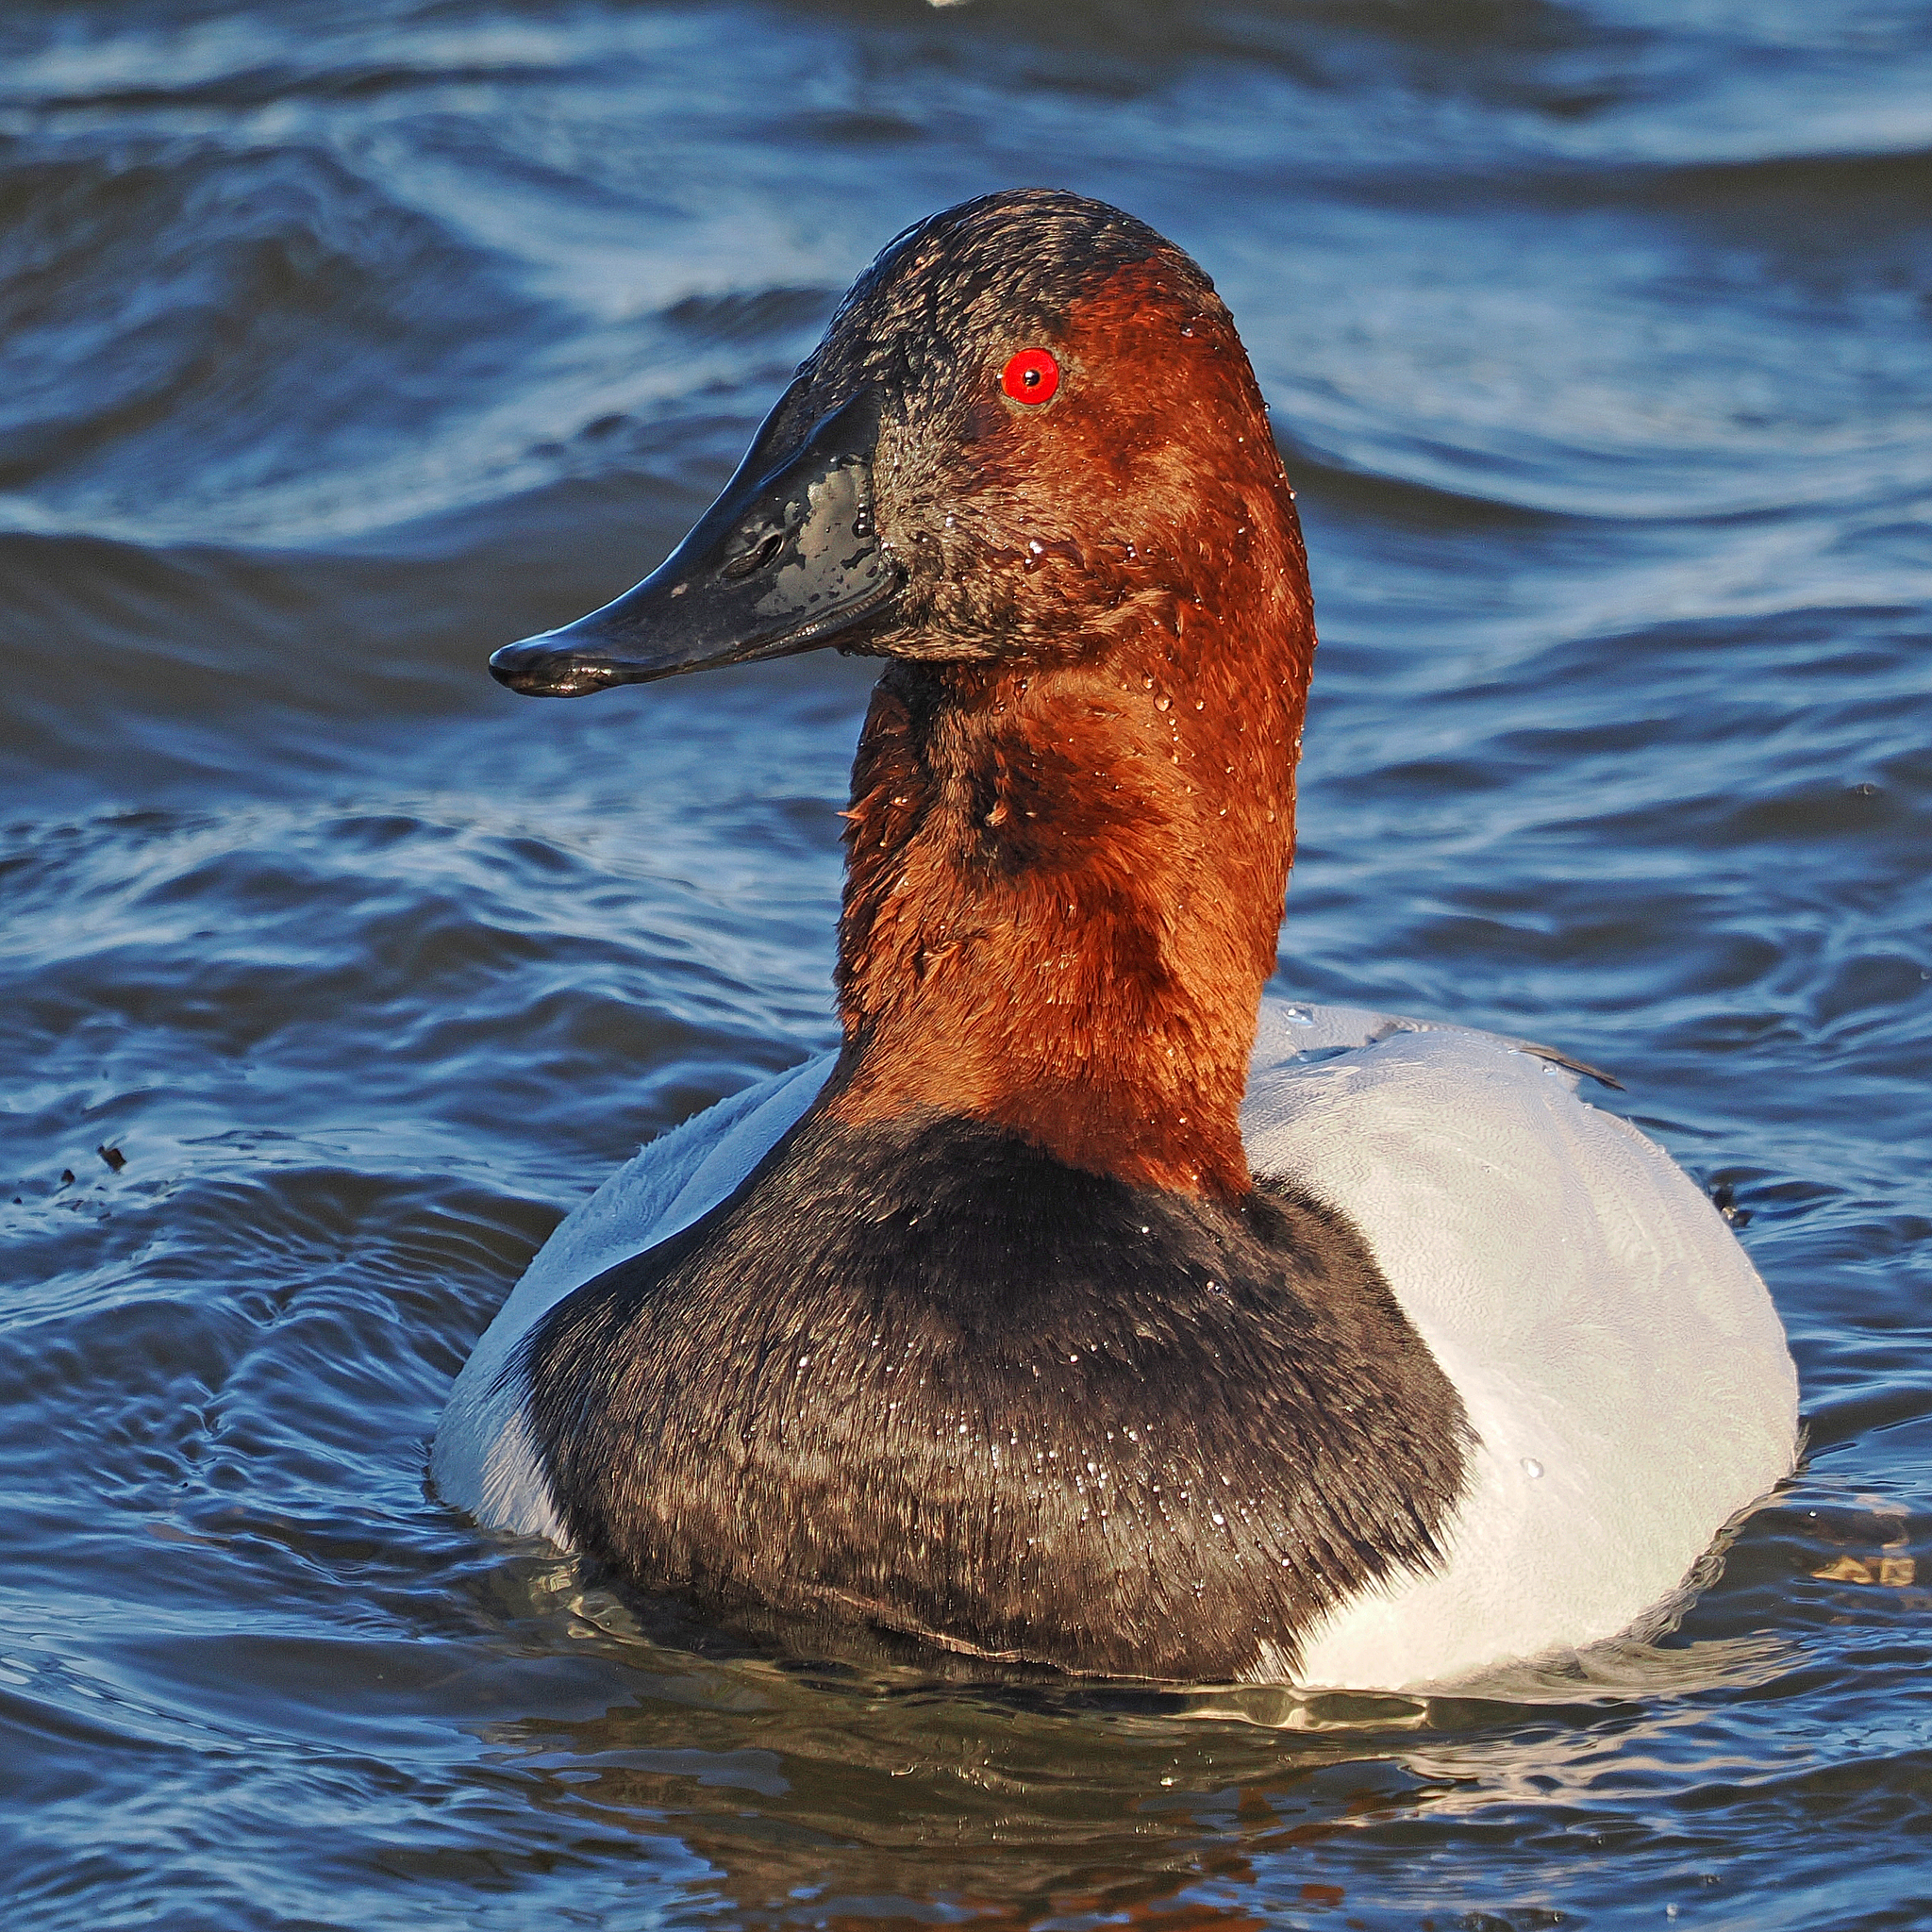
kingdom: Animalia
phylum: Chordata
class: Aves
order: Anseriformes
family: Anatidae
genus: Aythya
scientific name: Aythya valisineria
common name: Canvasback
